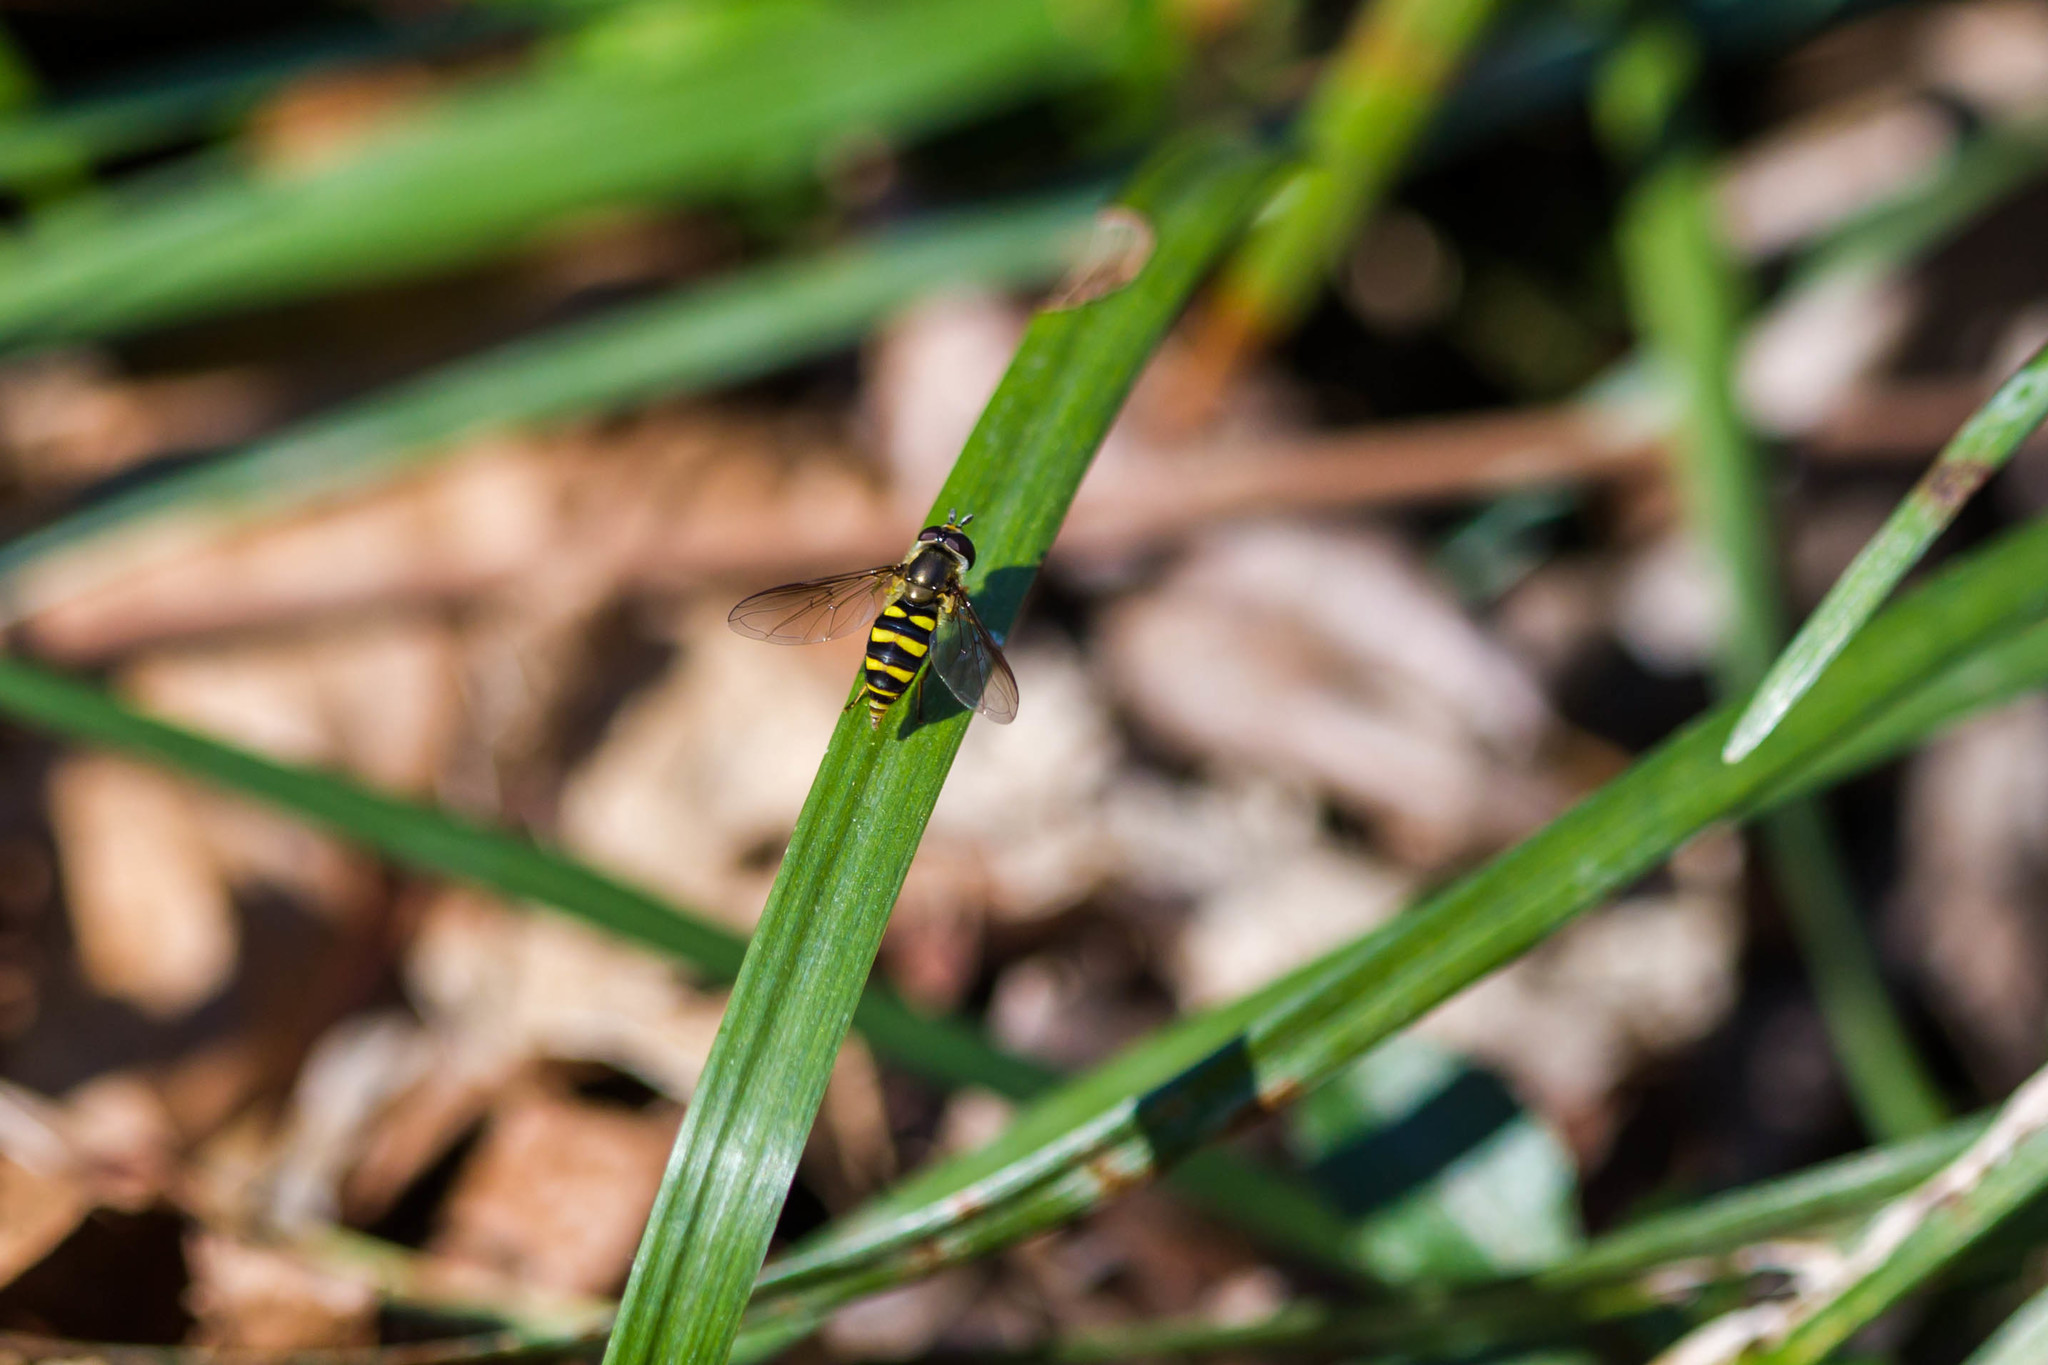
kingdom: Animalia
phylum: Arthropoda
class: Insecta
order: Diptera
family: Syrphidae
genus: Eupeodes
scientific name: Eupeodes
